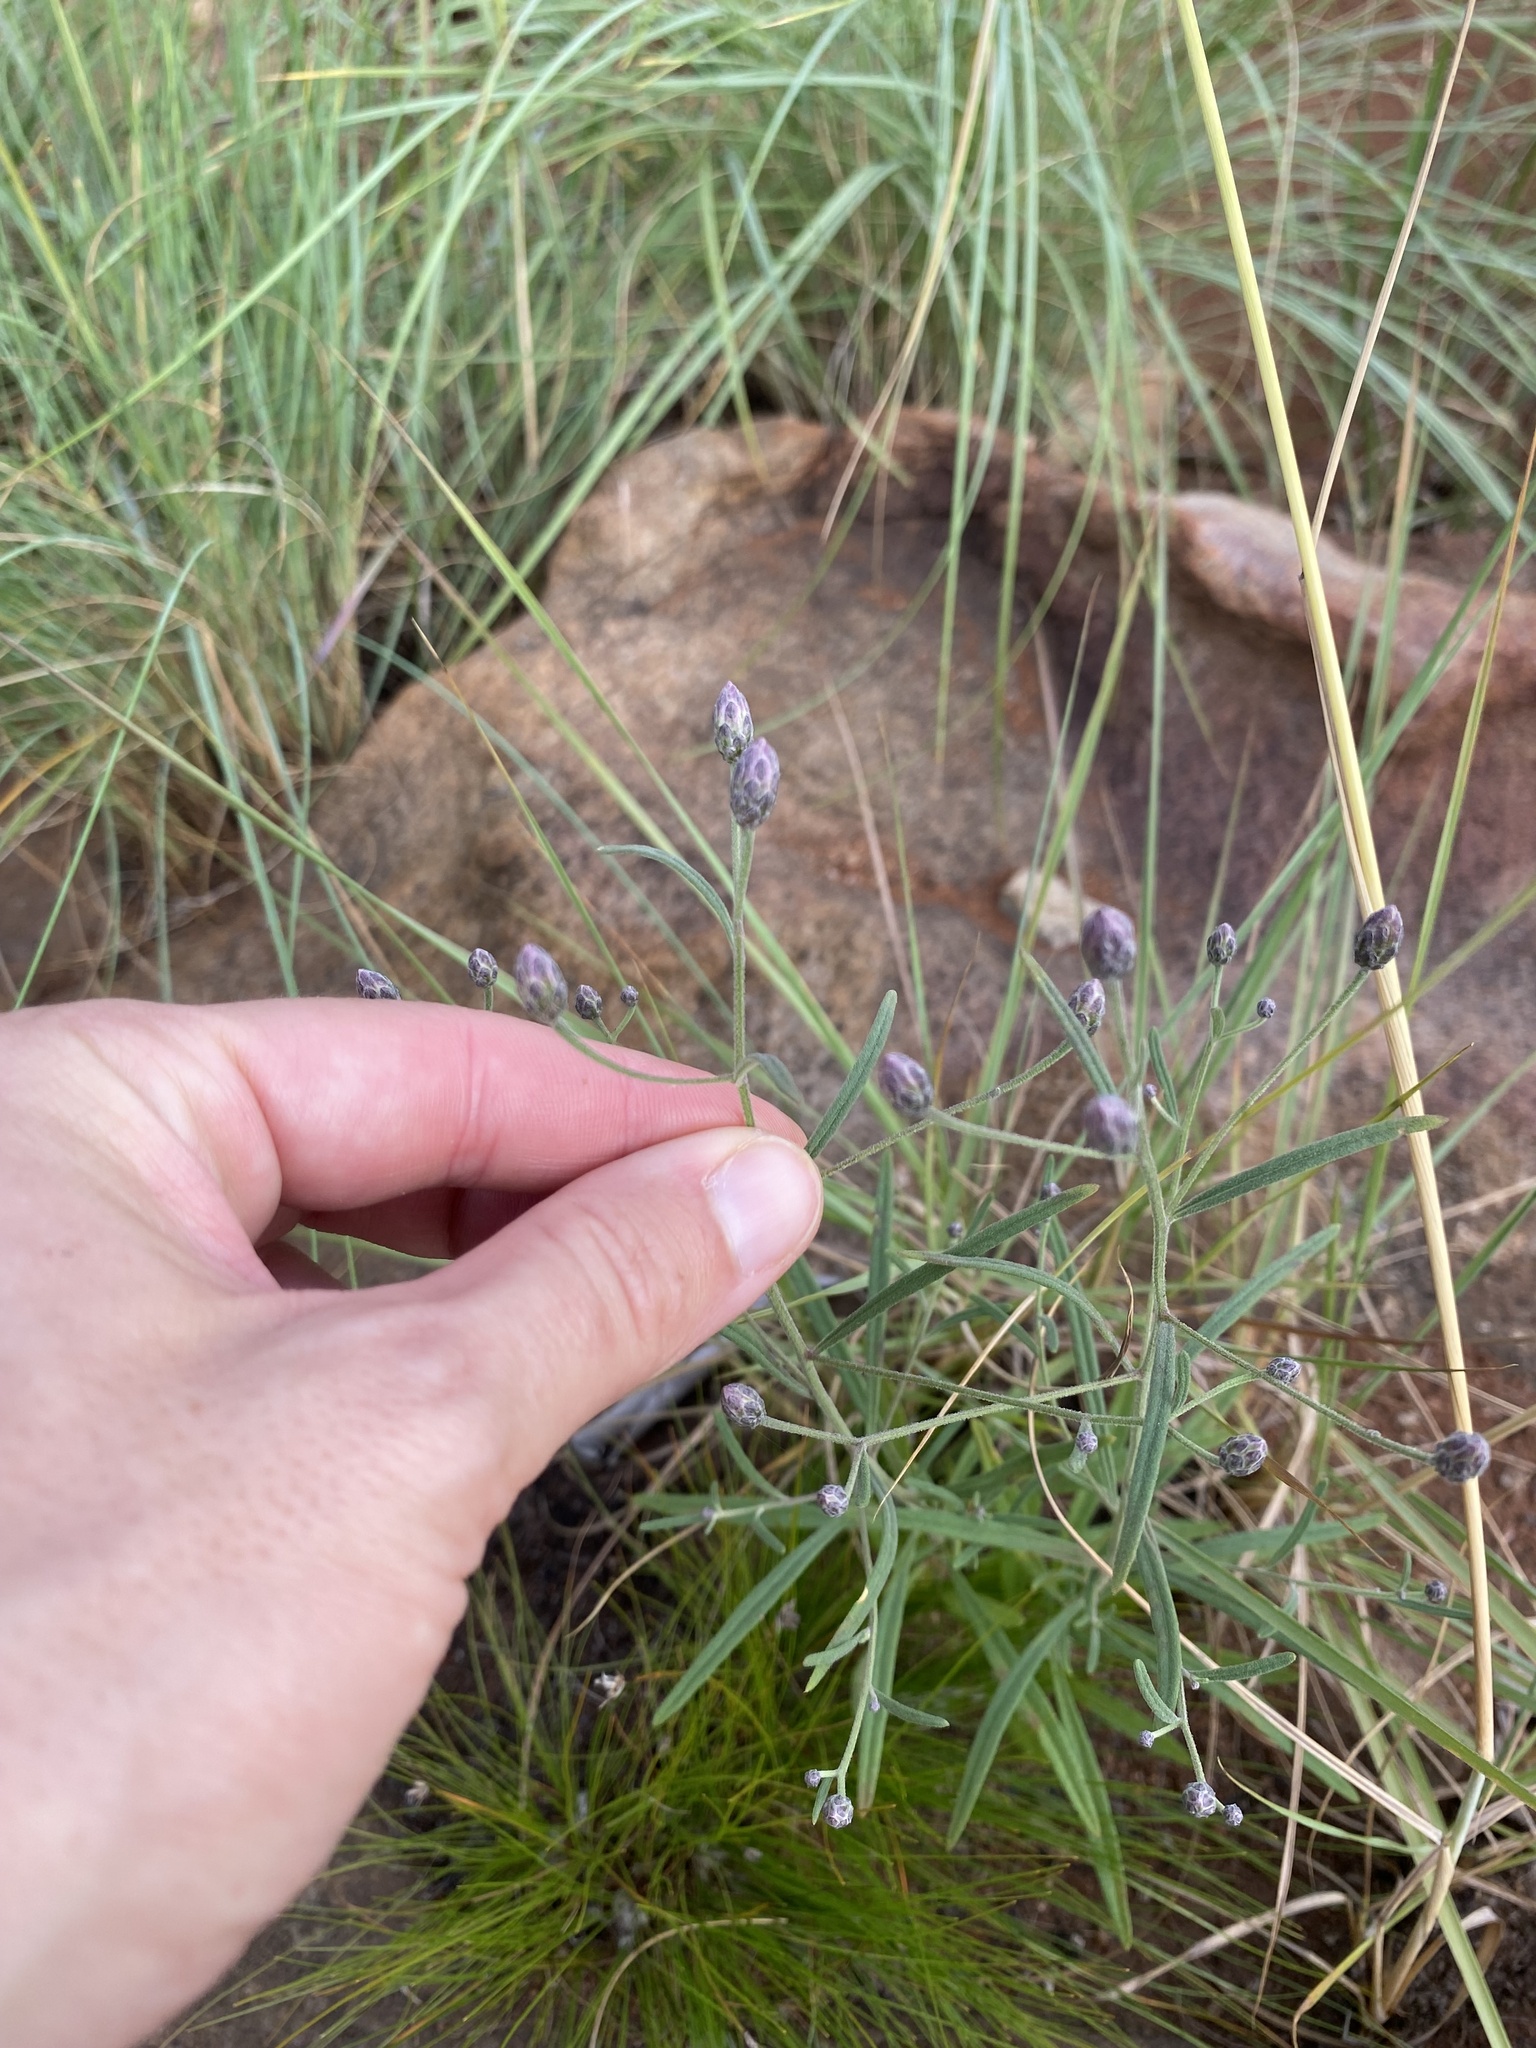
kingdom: Plantae
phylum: Tracheophyta
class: Magnoliopsida
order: Asterales
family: Asteraceae
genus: Crystallopollen
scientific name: Crystallopollen angustifolium
